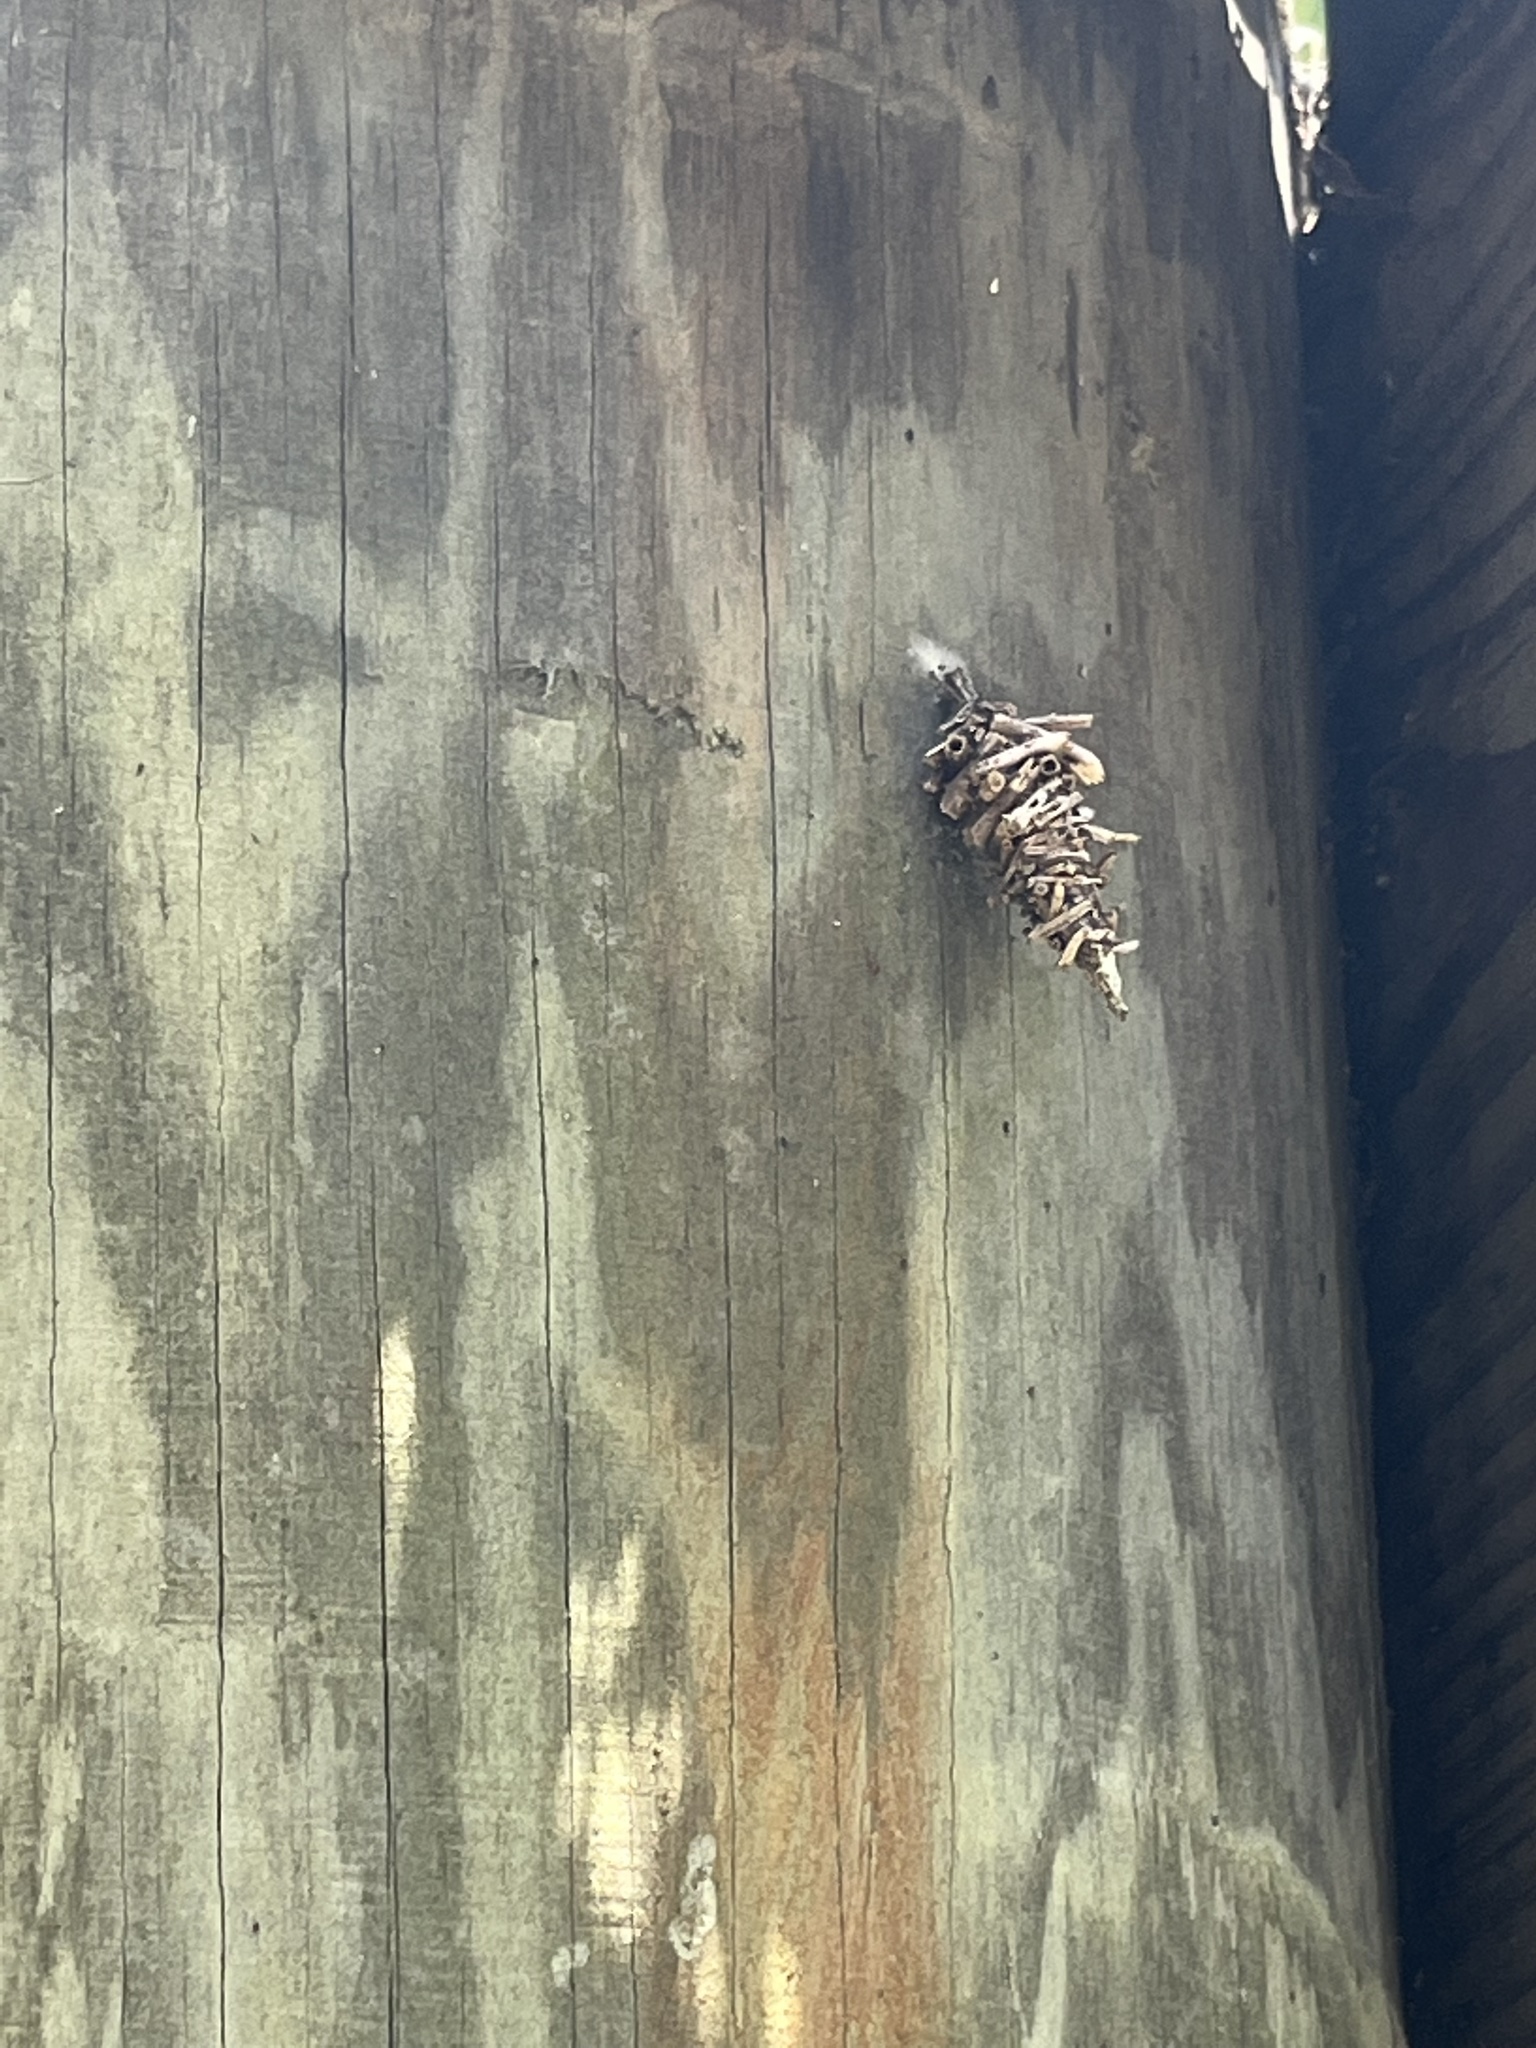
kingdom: Animalia
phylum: Arthropoda
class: Insecta
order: Lepidoptera
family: Psychidae
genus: Oiketicus
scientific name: Oiketicus
